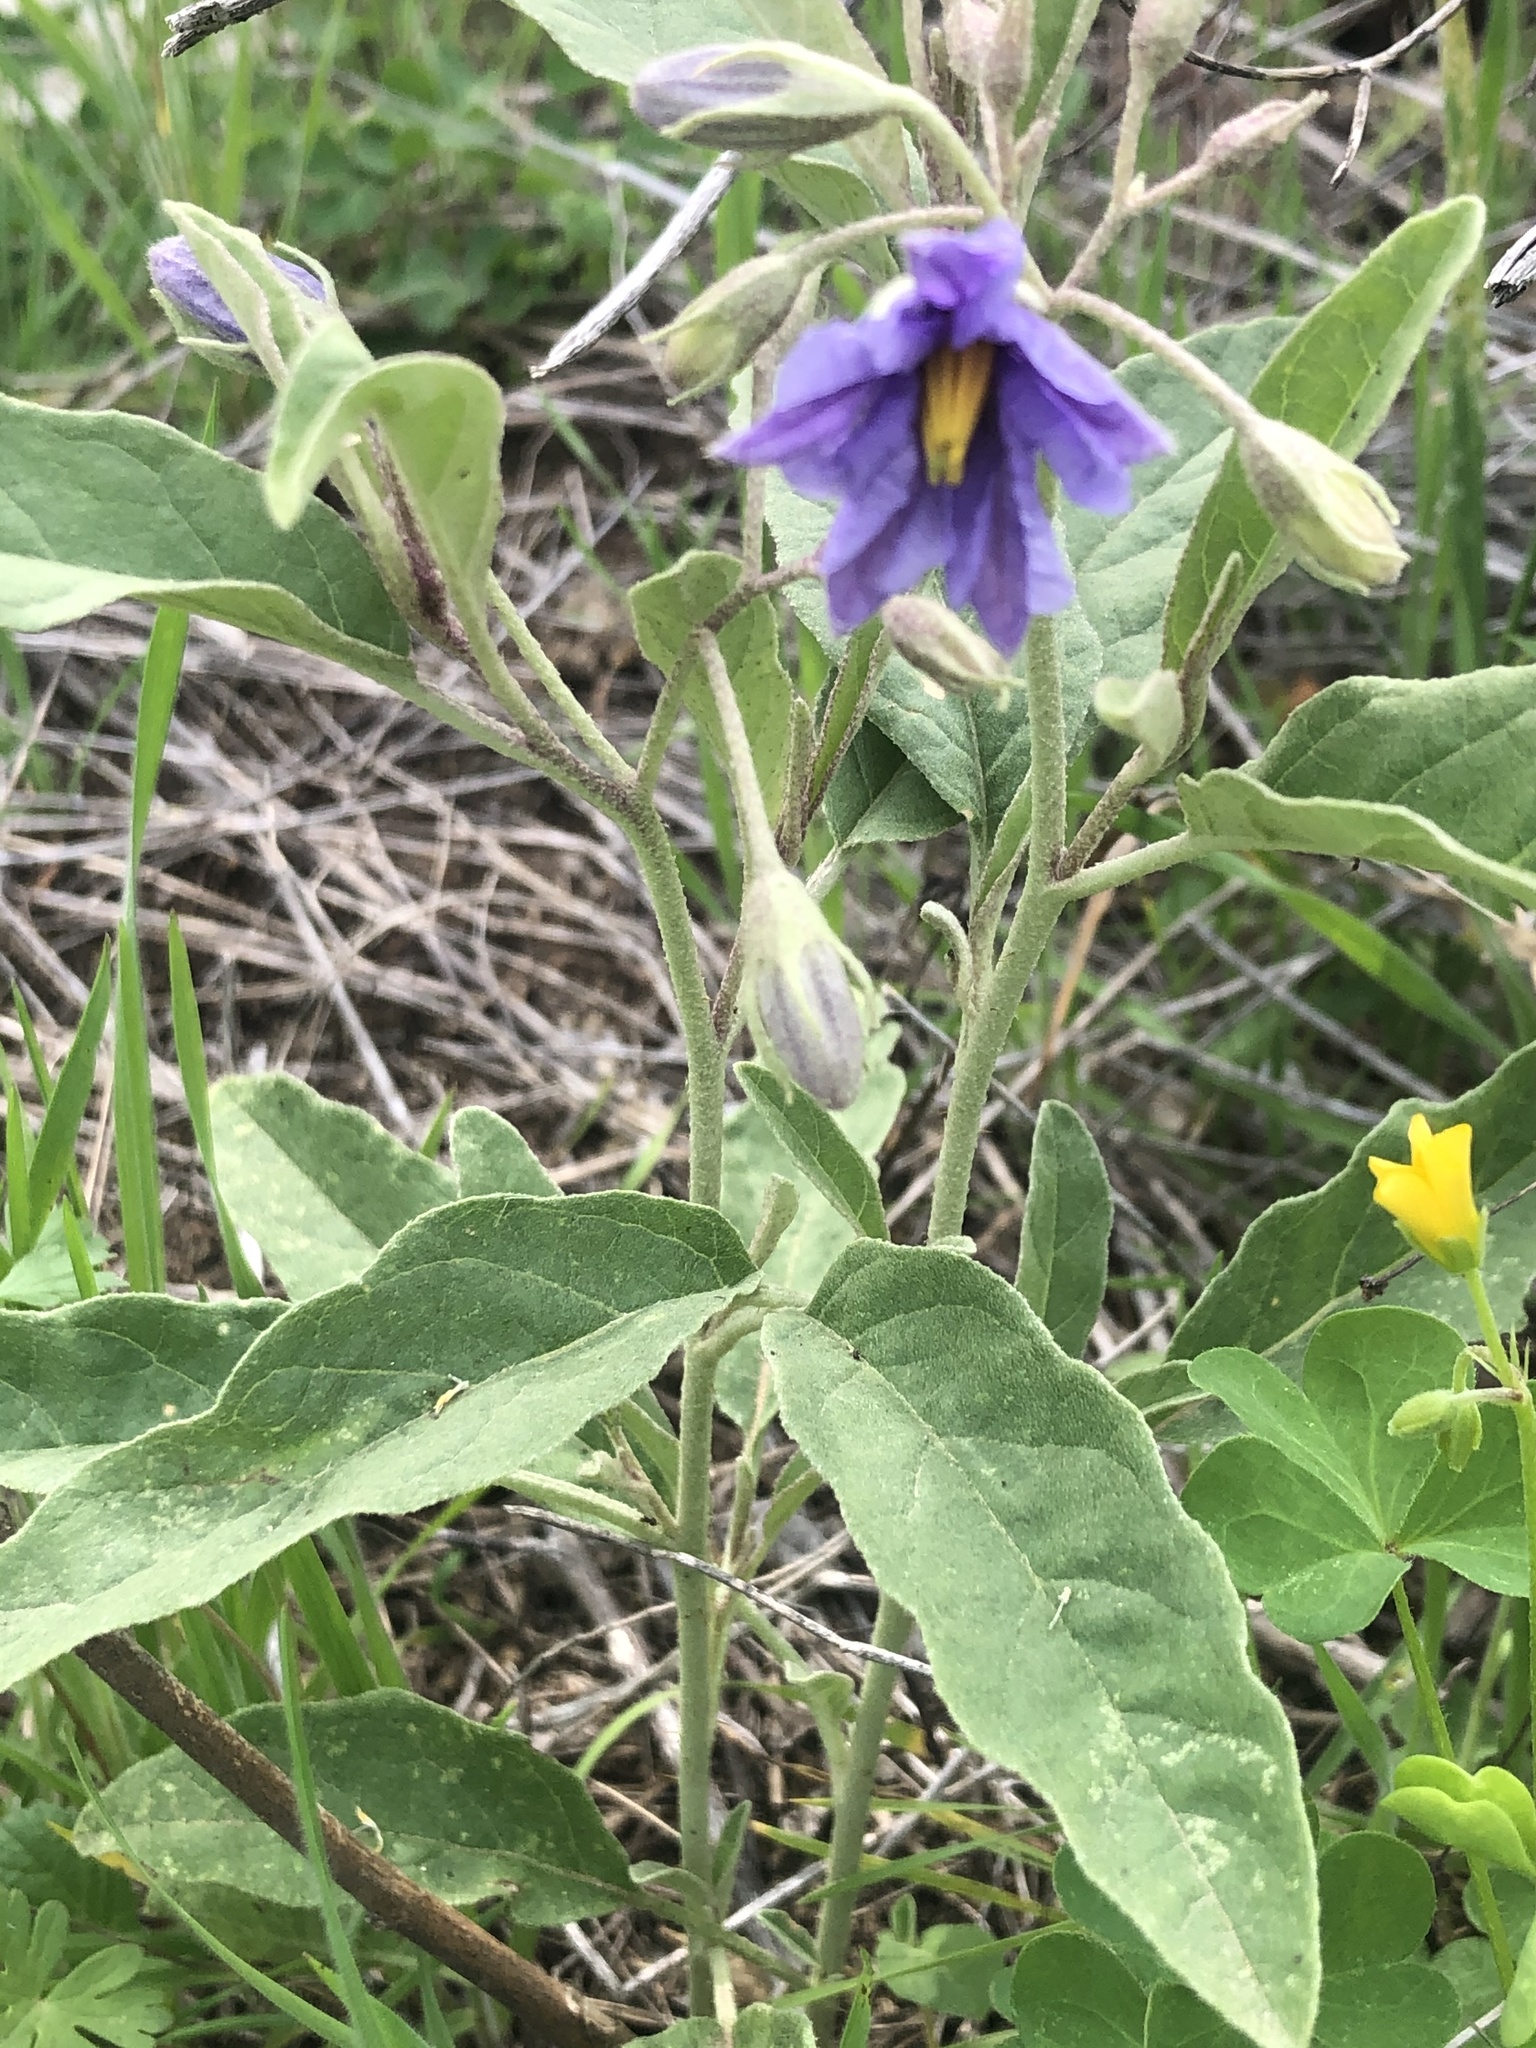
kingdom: Plantae
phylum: Tracheophyta
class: Magnoliopsida
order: Solanales
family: Solanaceae
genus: Solanum
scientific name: Solanum elaeagnifolium
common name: Silverleaf nightshade
